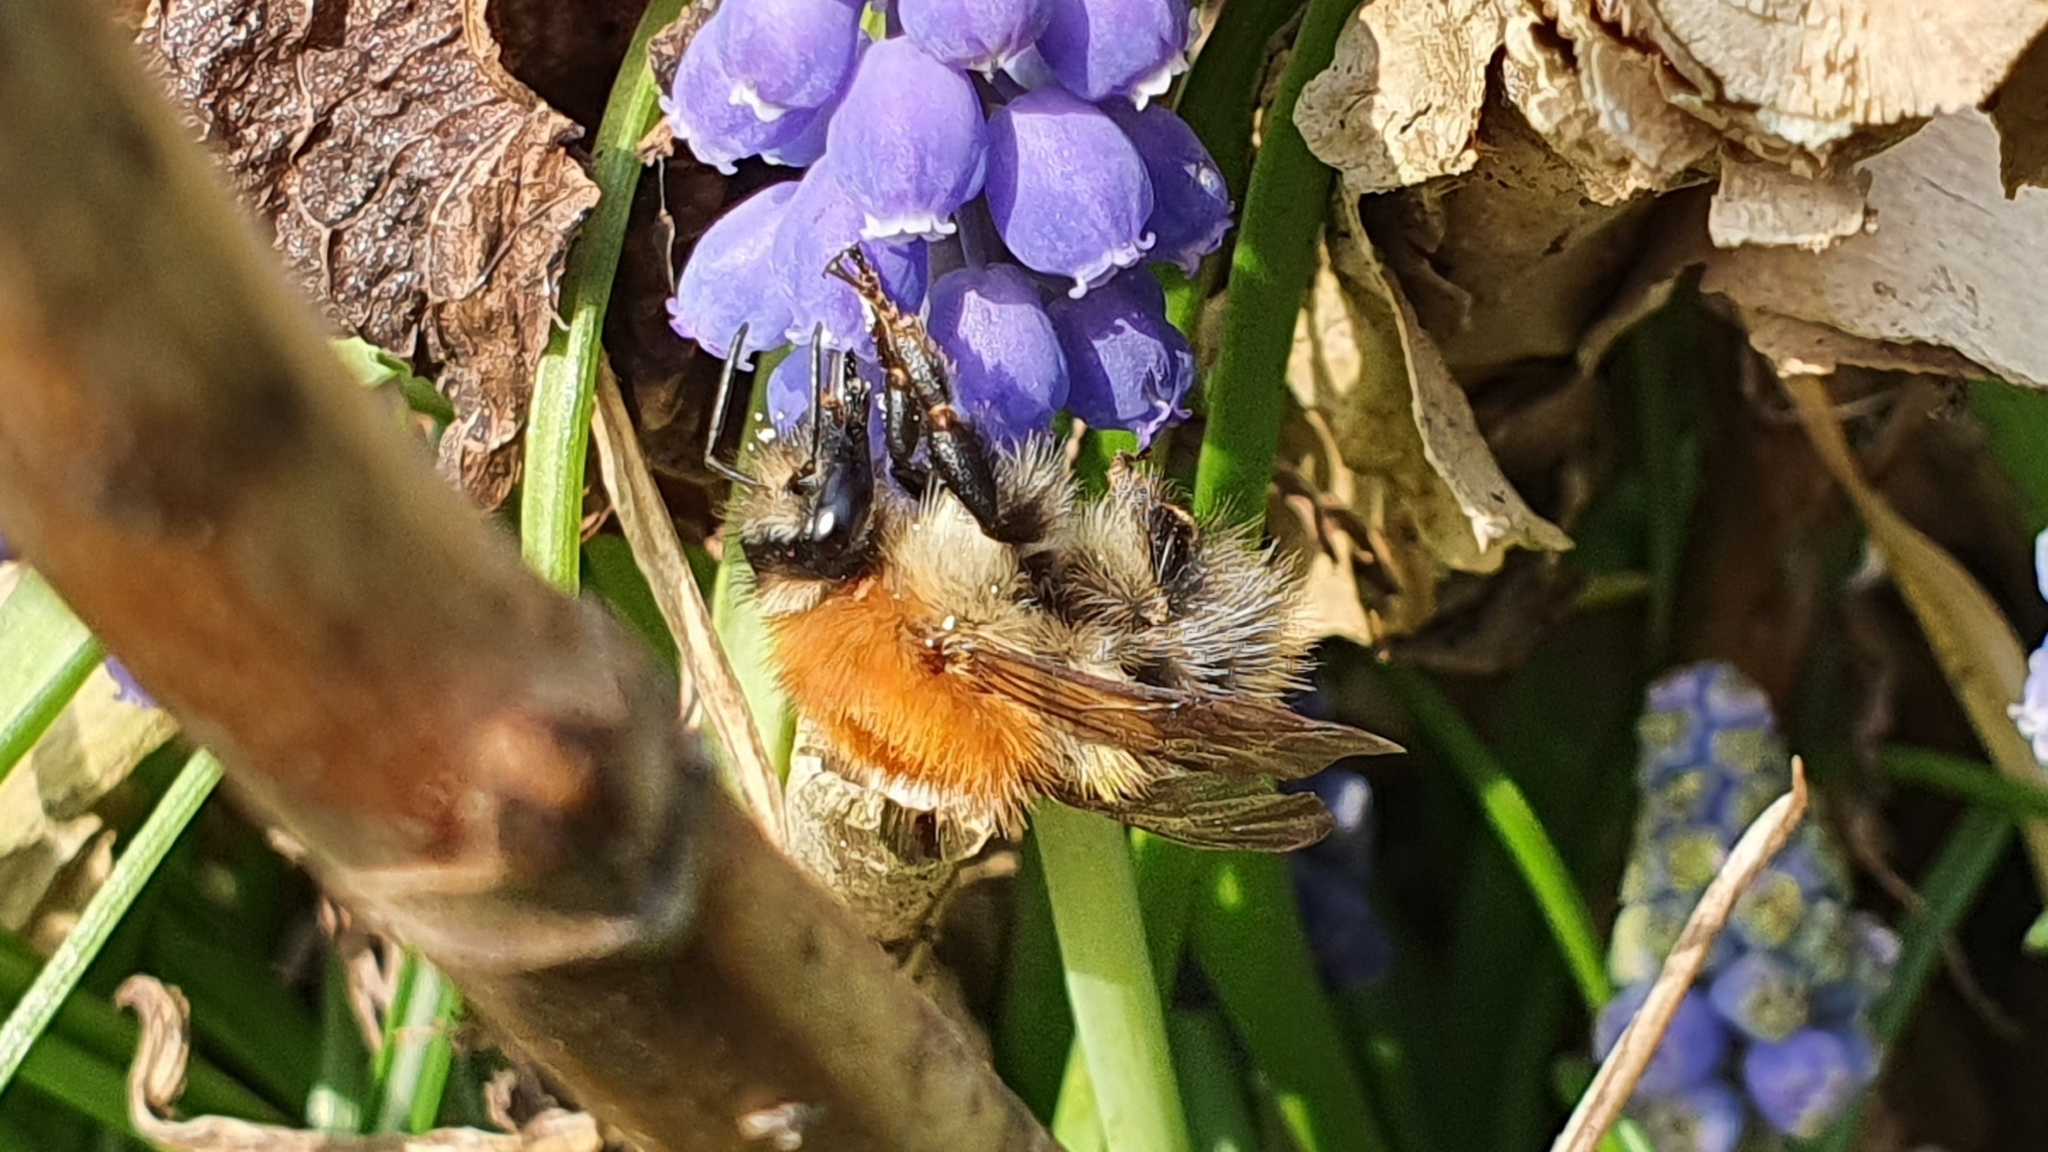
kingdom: Animalia
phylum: Arthropoda
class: Insecta
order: Hymenoptera
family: Apidae
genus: Bombus
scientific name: Bombus pascuorum
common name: Common carder bee
